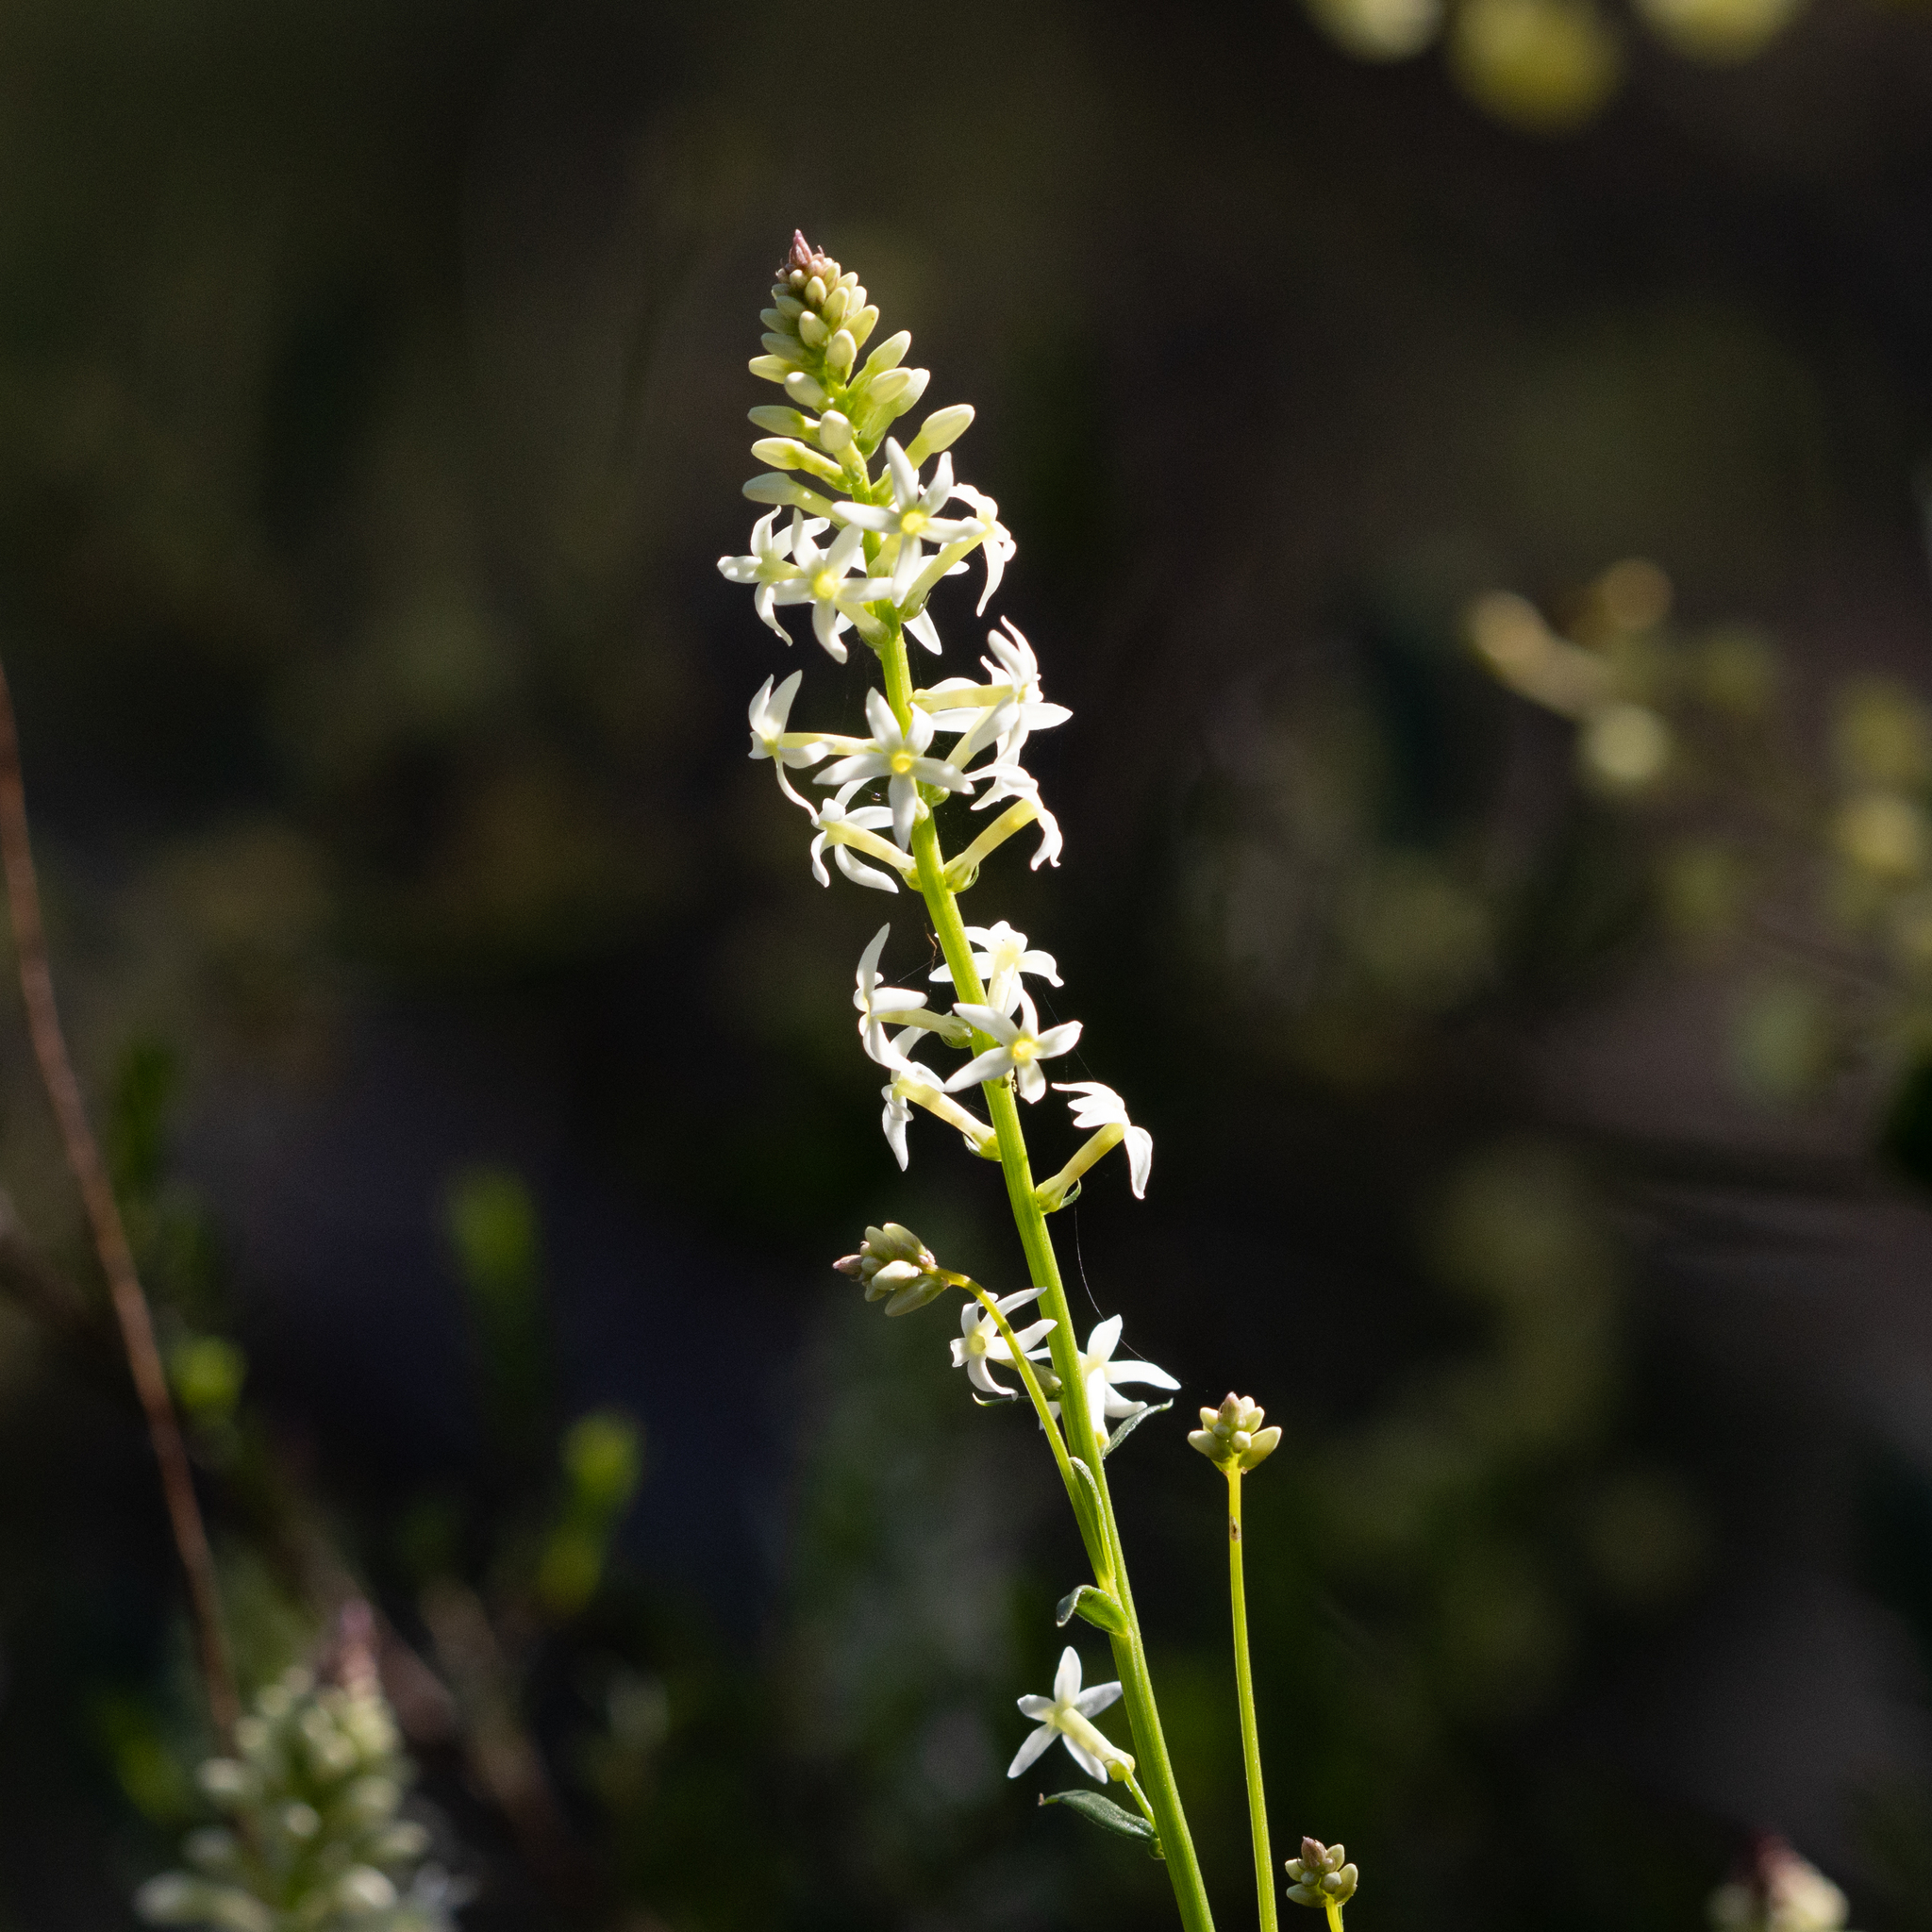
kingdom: Plantae
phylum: Tracheophyta
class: Magnoliopsida
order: Celastrales
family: Celastraceae
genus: Stackhousia
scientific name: Stackhousia monogyna
